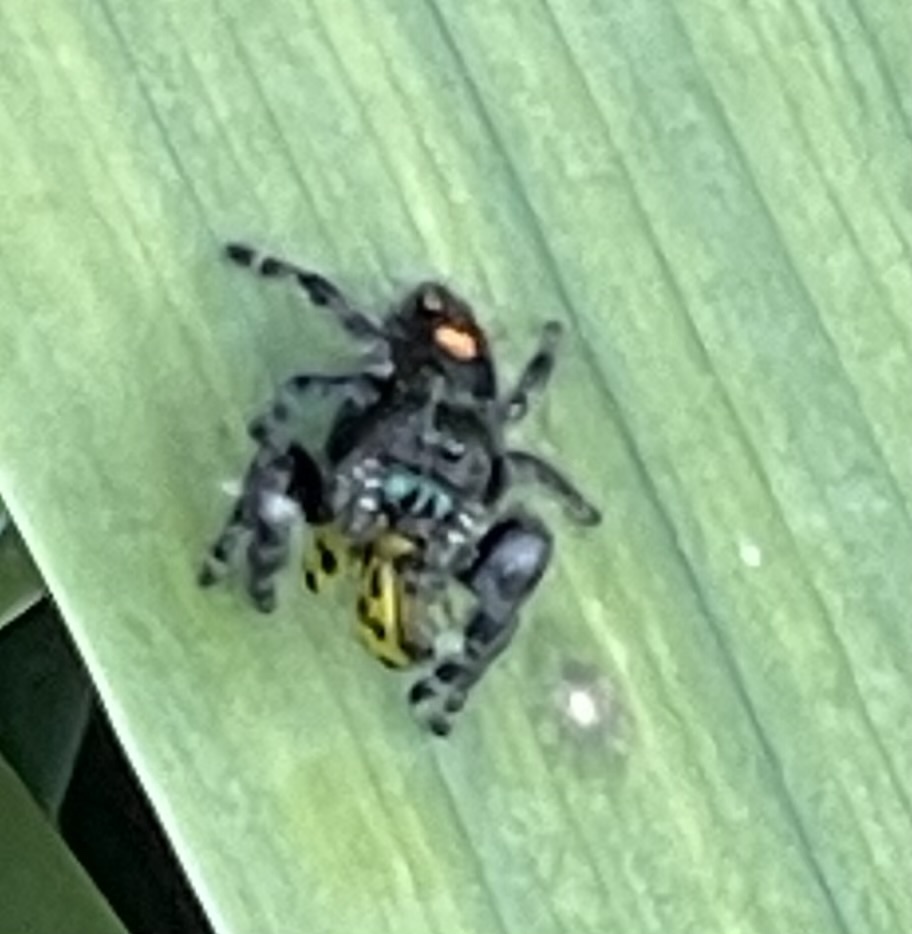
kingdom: Animalia
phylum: Arthropoda
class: Arachnida
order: Araneae
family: Salticidae
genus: Phidippus
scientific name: Phidippus audax
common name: Bold jumper
